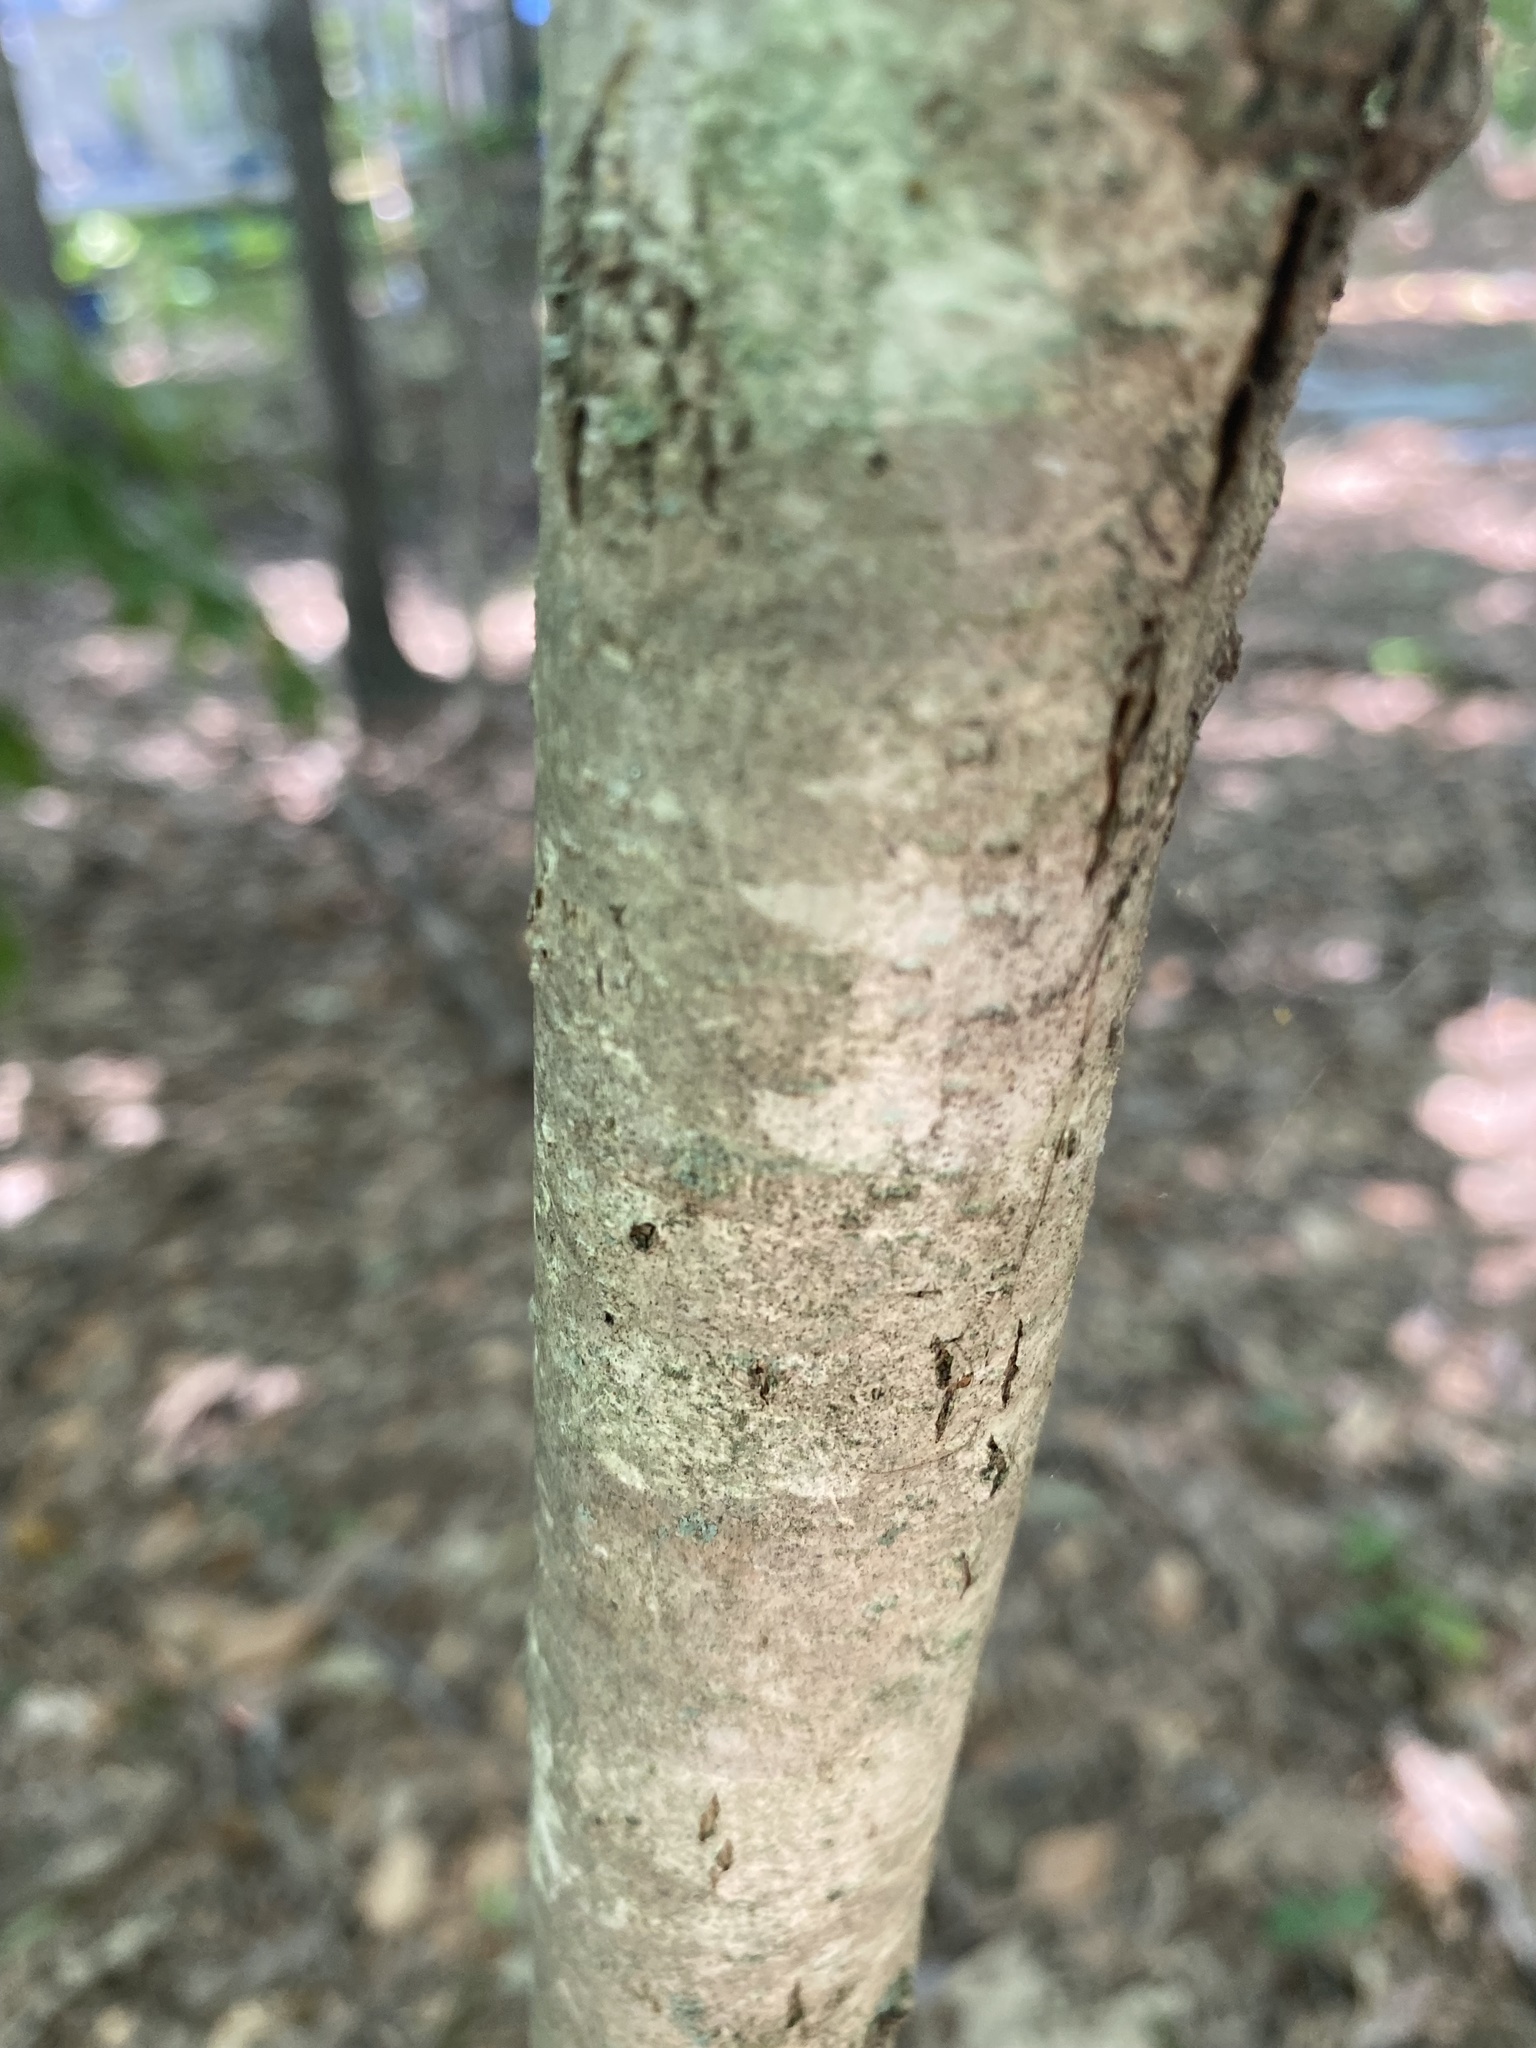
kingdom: Plantae
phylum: Tracheophyta
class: Magnoliopsida
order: Fagales
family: Fagaceae
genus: Quercus
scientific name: Quercus alba
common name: White oak
